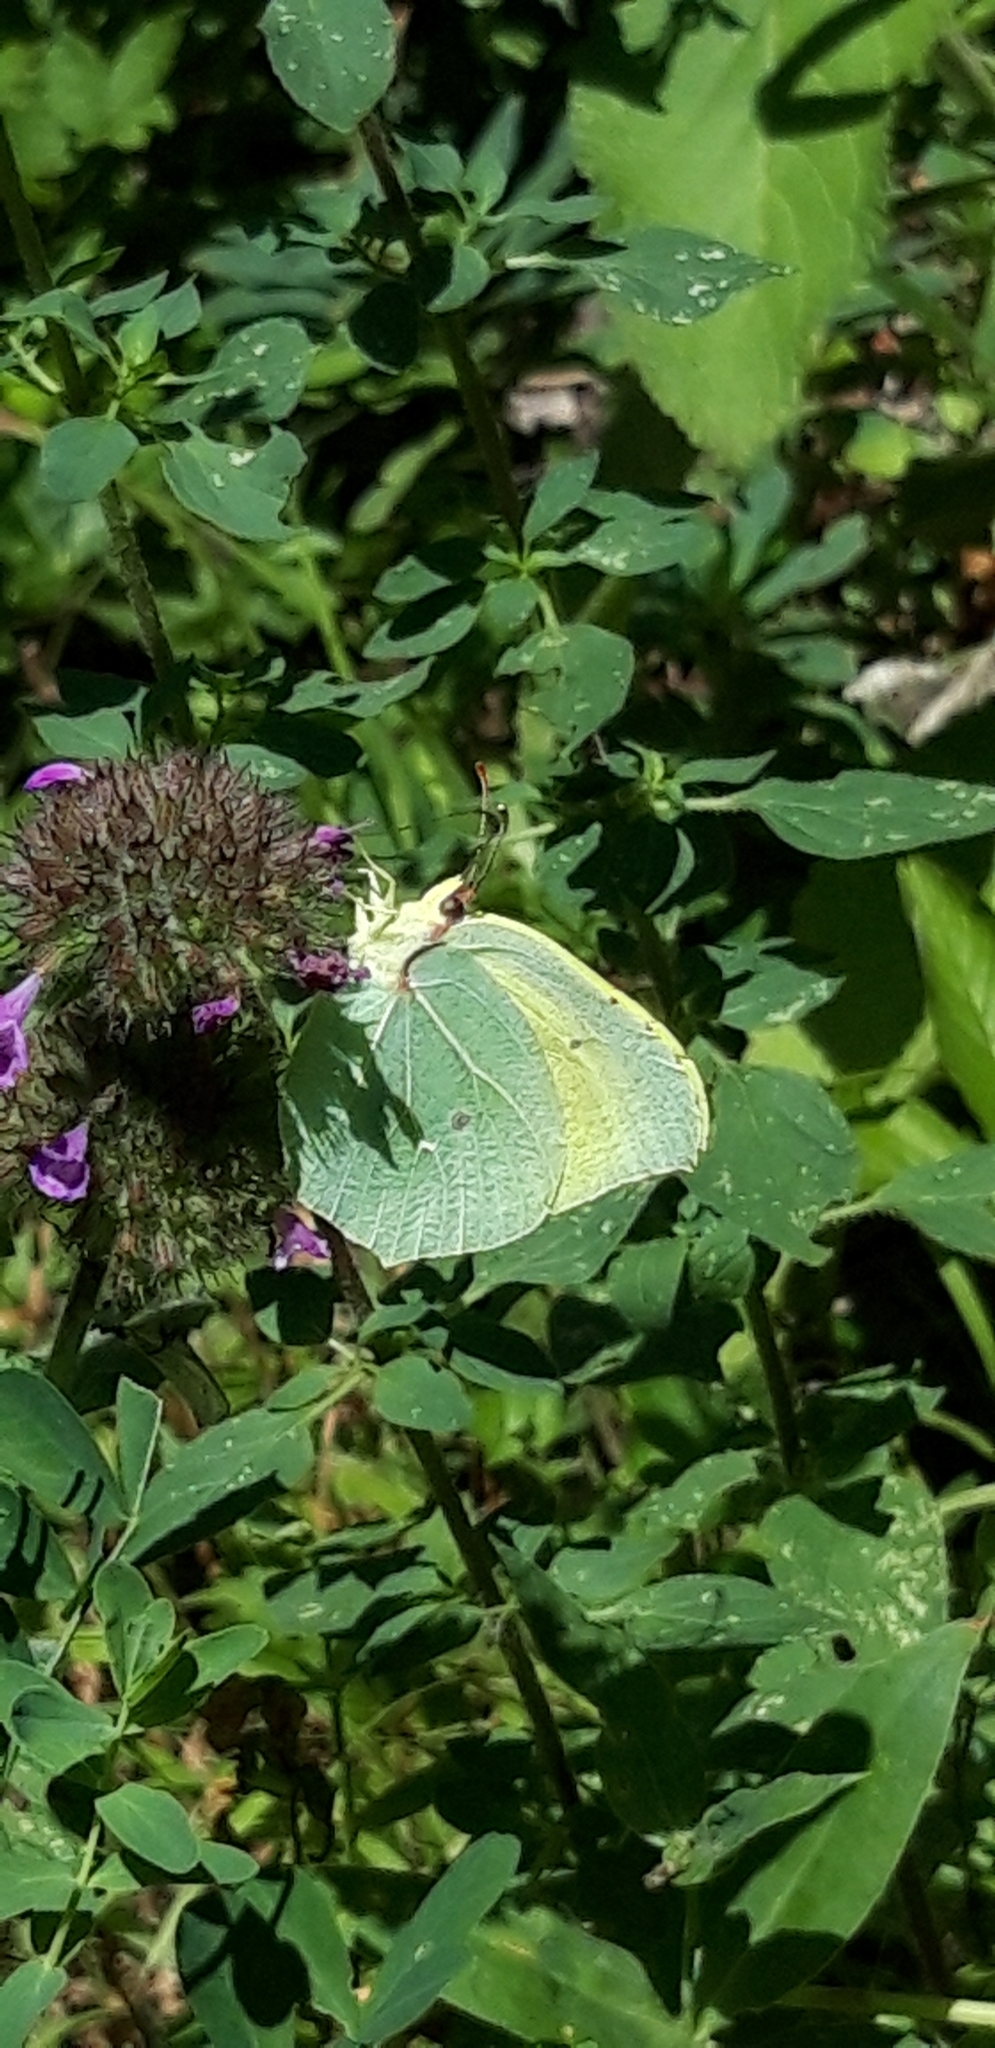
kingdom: Animalia
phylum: Arthropoda
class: Insecta
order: Lepidoptera
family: Pieridae
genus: Gonepteryx
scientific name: Gonepteryx cleopatra
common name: Cleopatra
